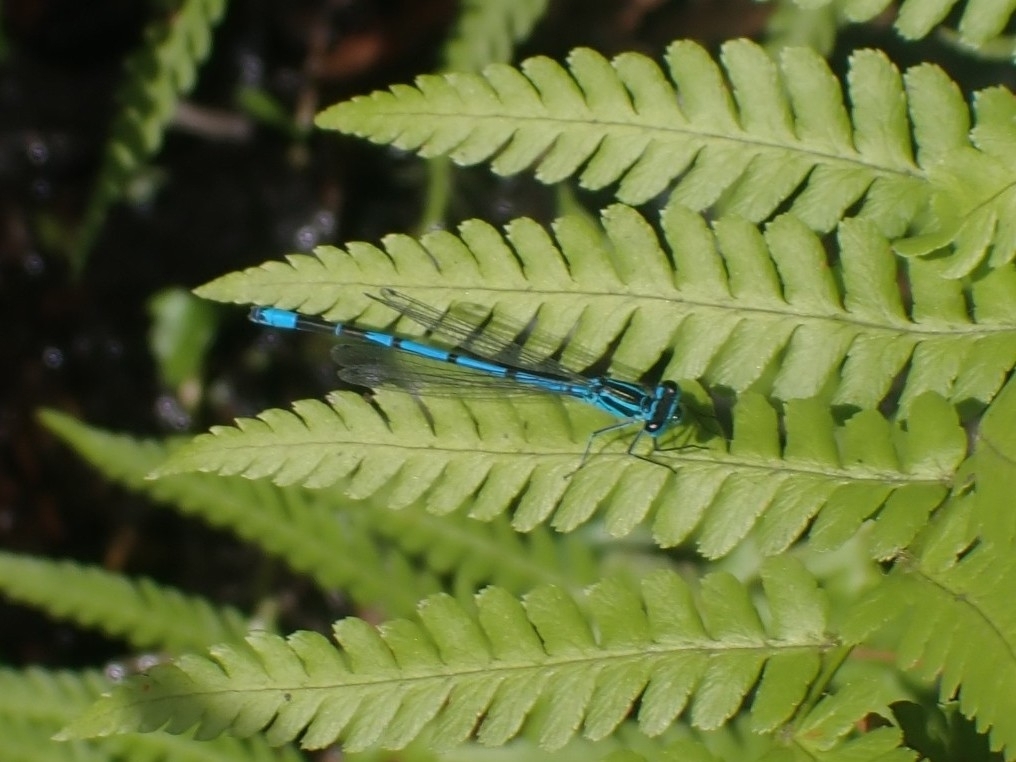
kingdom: Animalia
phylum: Arthropoda
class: Insecta
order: Odonata
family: Coenagrionidae
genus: Coenagrion
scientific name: Coenagrion puella
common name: Azure damselfly
